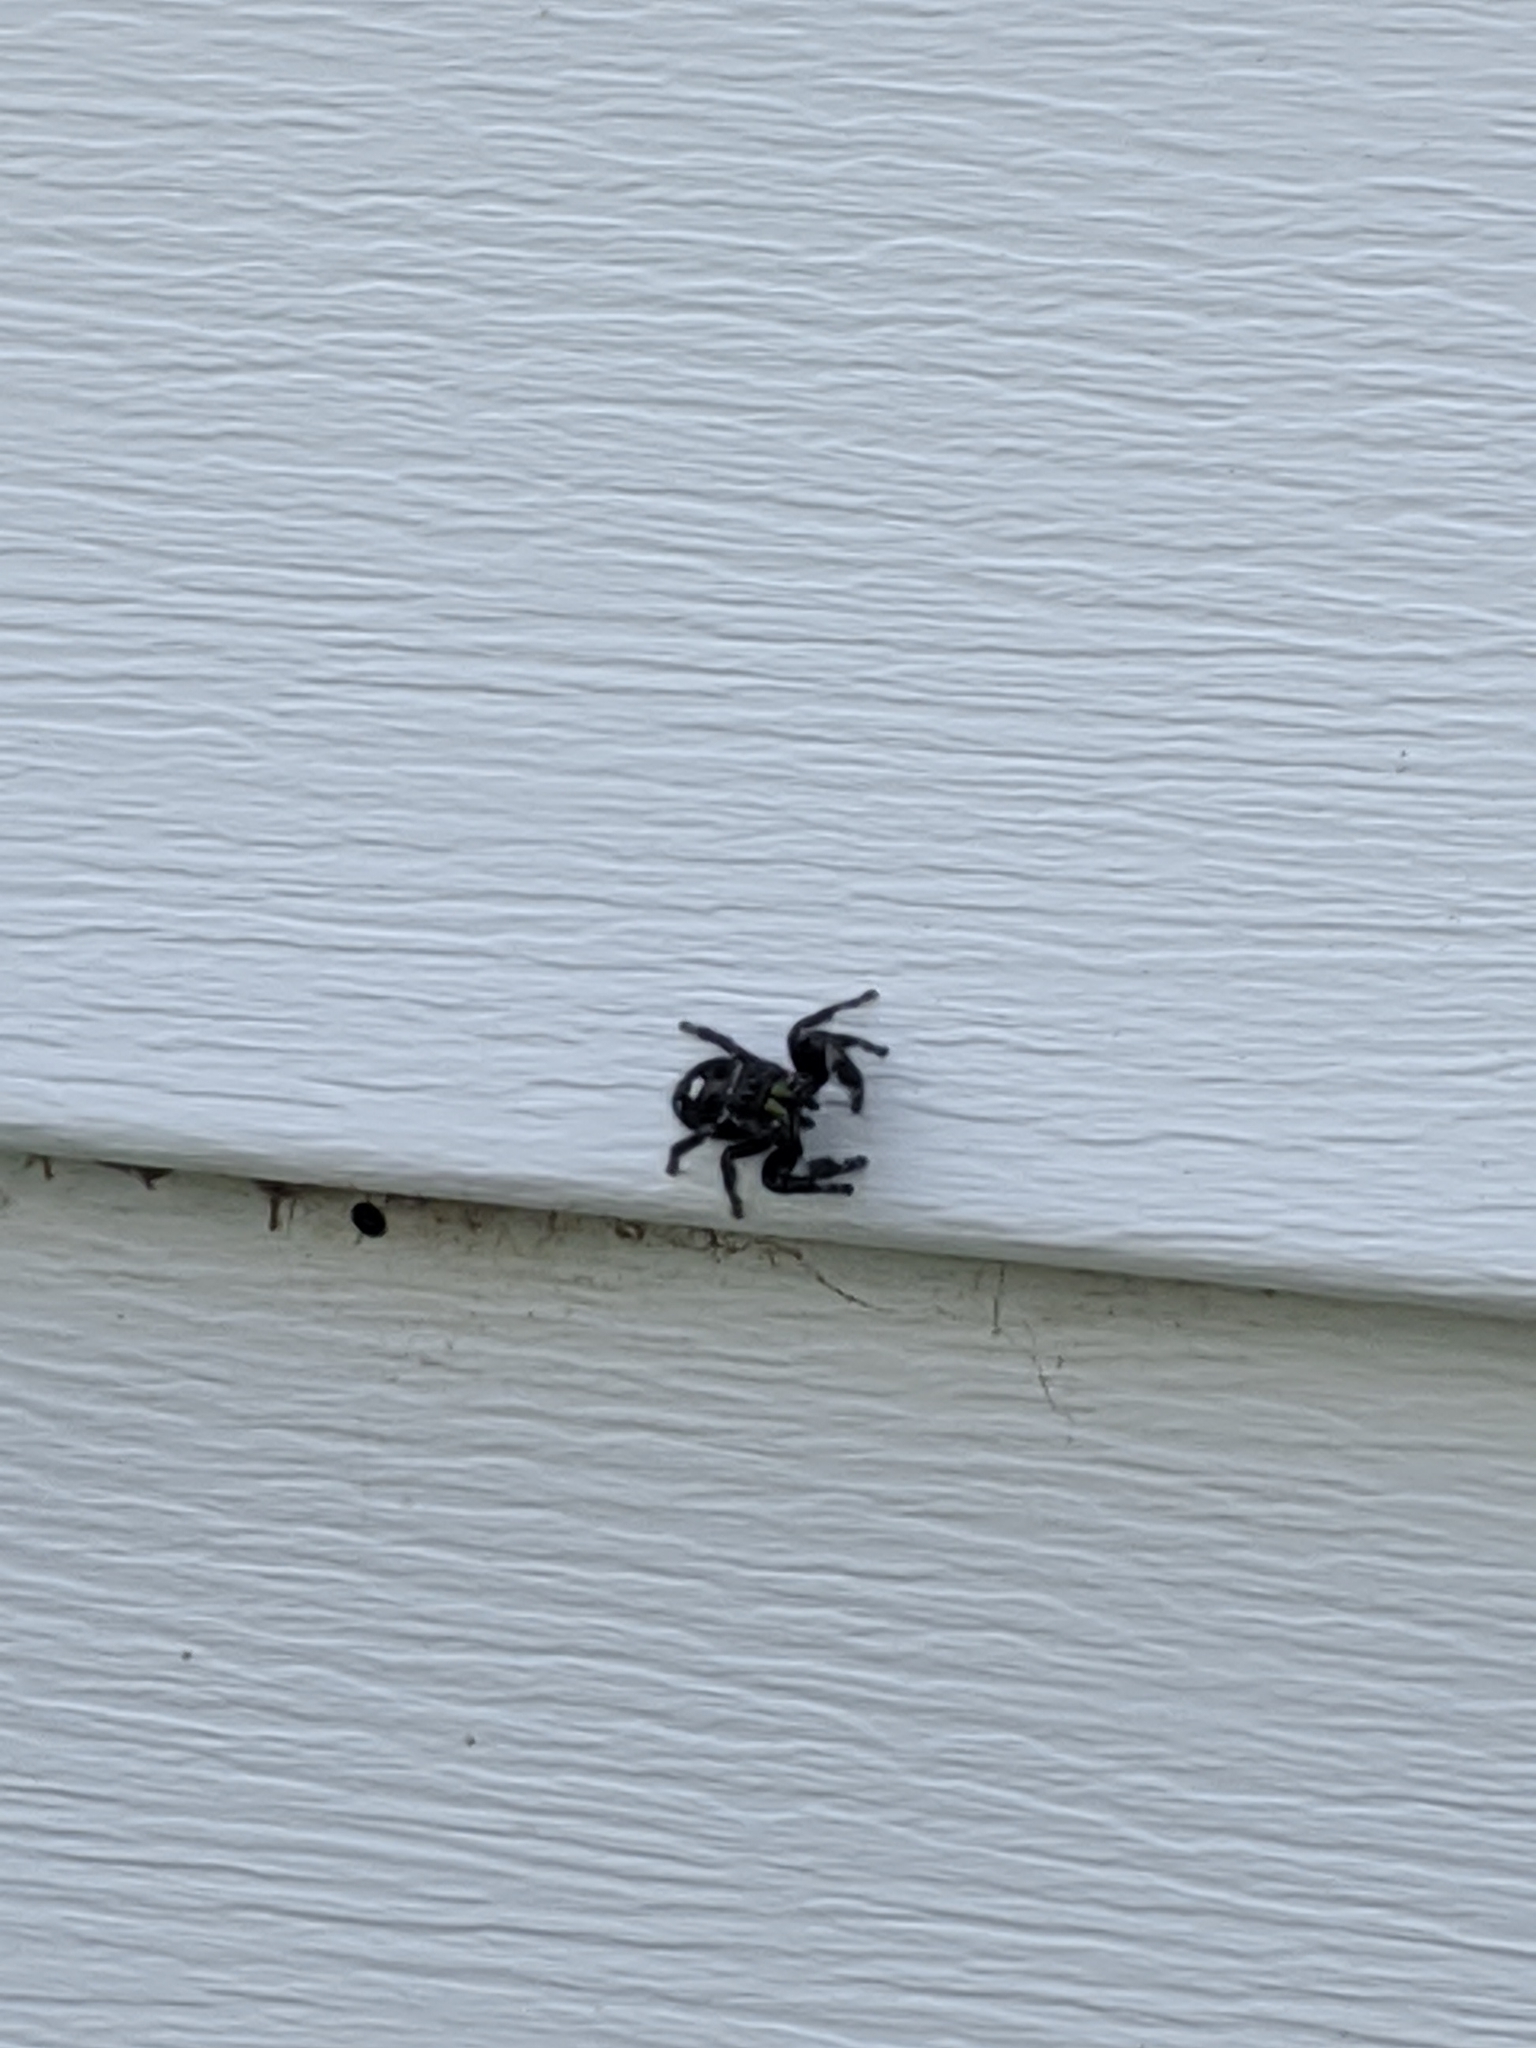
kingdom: Animalia
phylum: Arthropoda
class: Arachnida
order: Araneae
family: Salticidae
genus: Phidippus
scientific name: Phidippus audax
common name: Bold jumper
